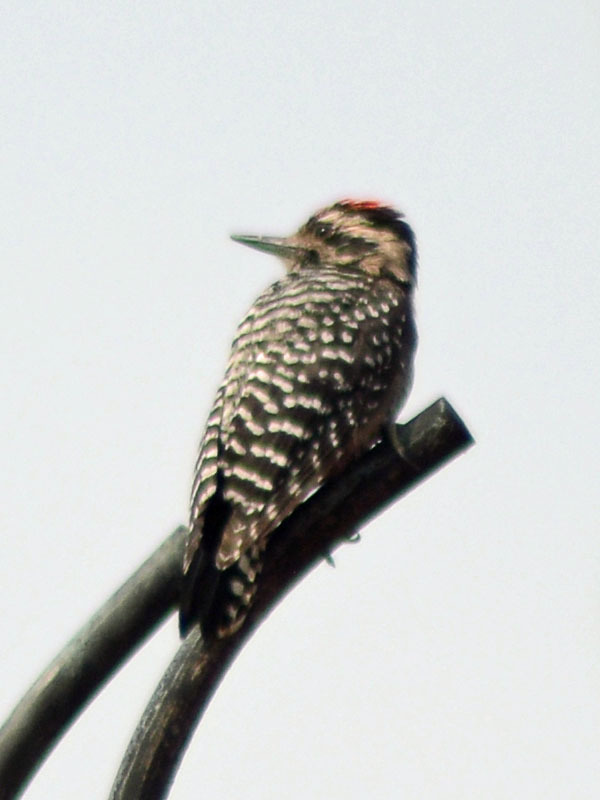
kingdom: Animalia
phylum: Chordata
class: Aves
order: Piciformes
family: Picidae
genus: Dryobates
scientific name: Dryobates scalaris
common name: Ladder-backed woodpecker
